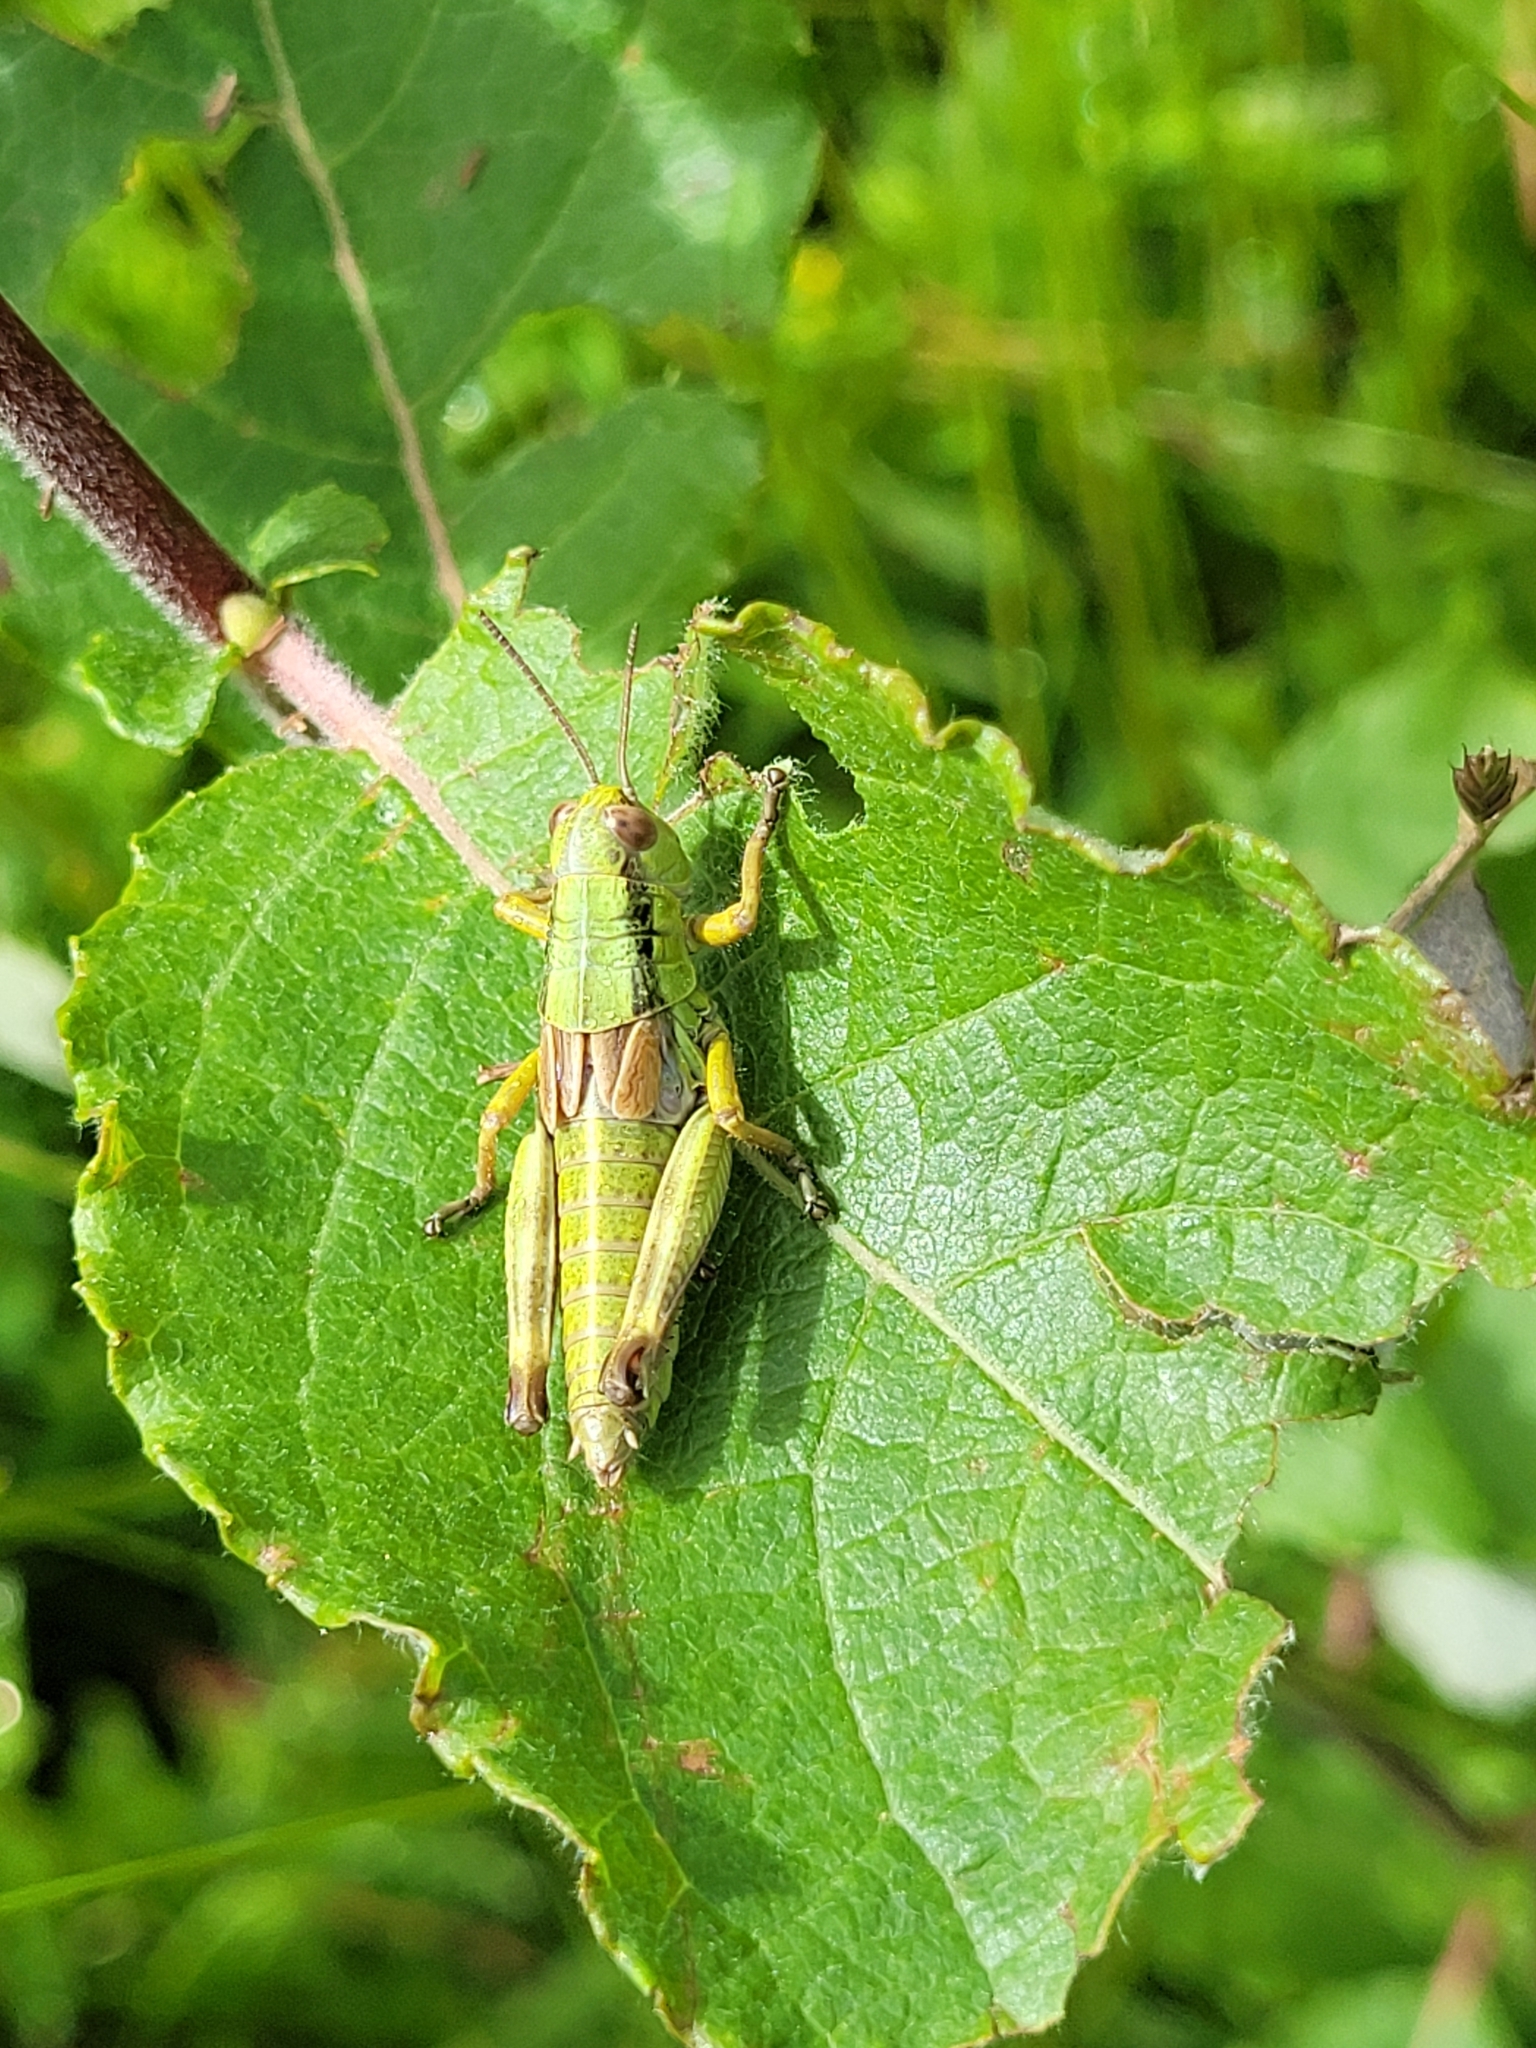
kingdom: Animalia
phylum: Arthropoda
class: Insecta
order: Orthoptera
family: Acrididae
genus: Miramella
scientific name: Miramella irena
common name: Long-winged mountain grasshopper
